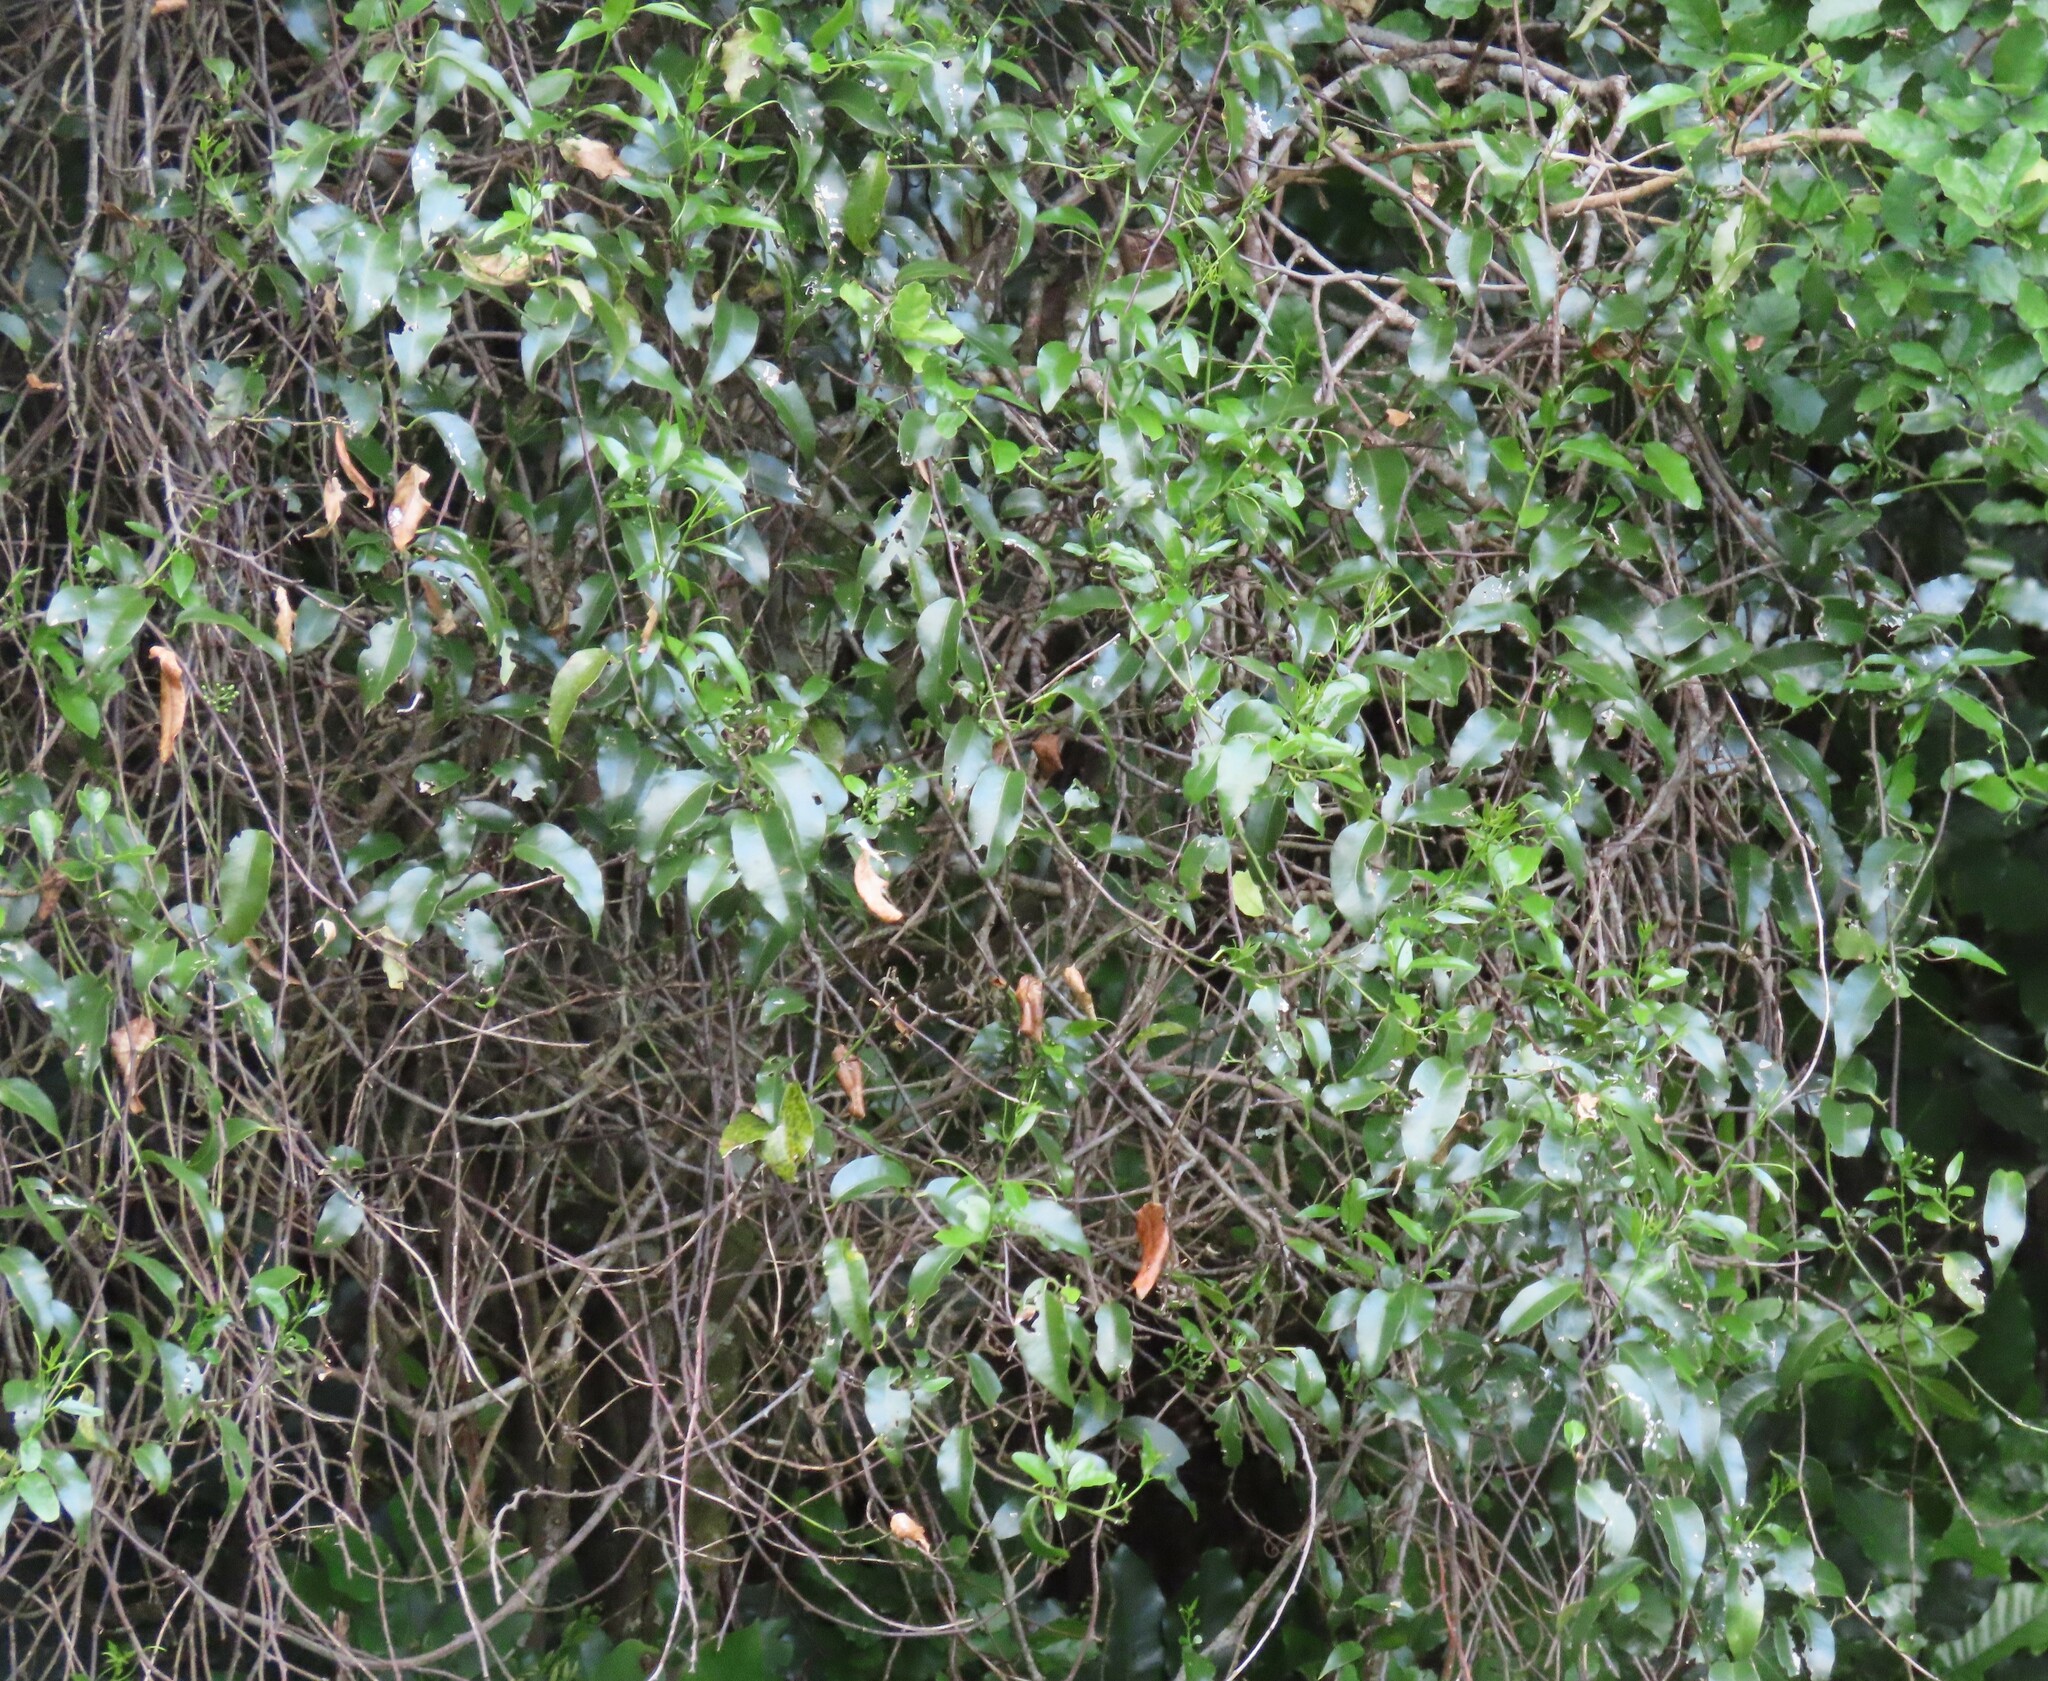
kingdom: Plantae
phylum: Tracheophyta
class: Magnoliopsida
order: Malpighiales
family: Passifloraceae
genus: Passiflora
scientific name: Passiflora tetrandra
